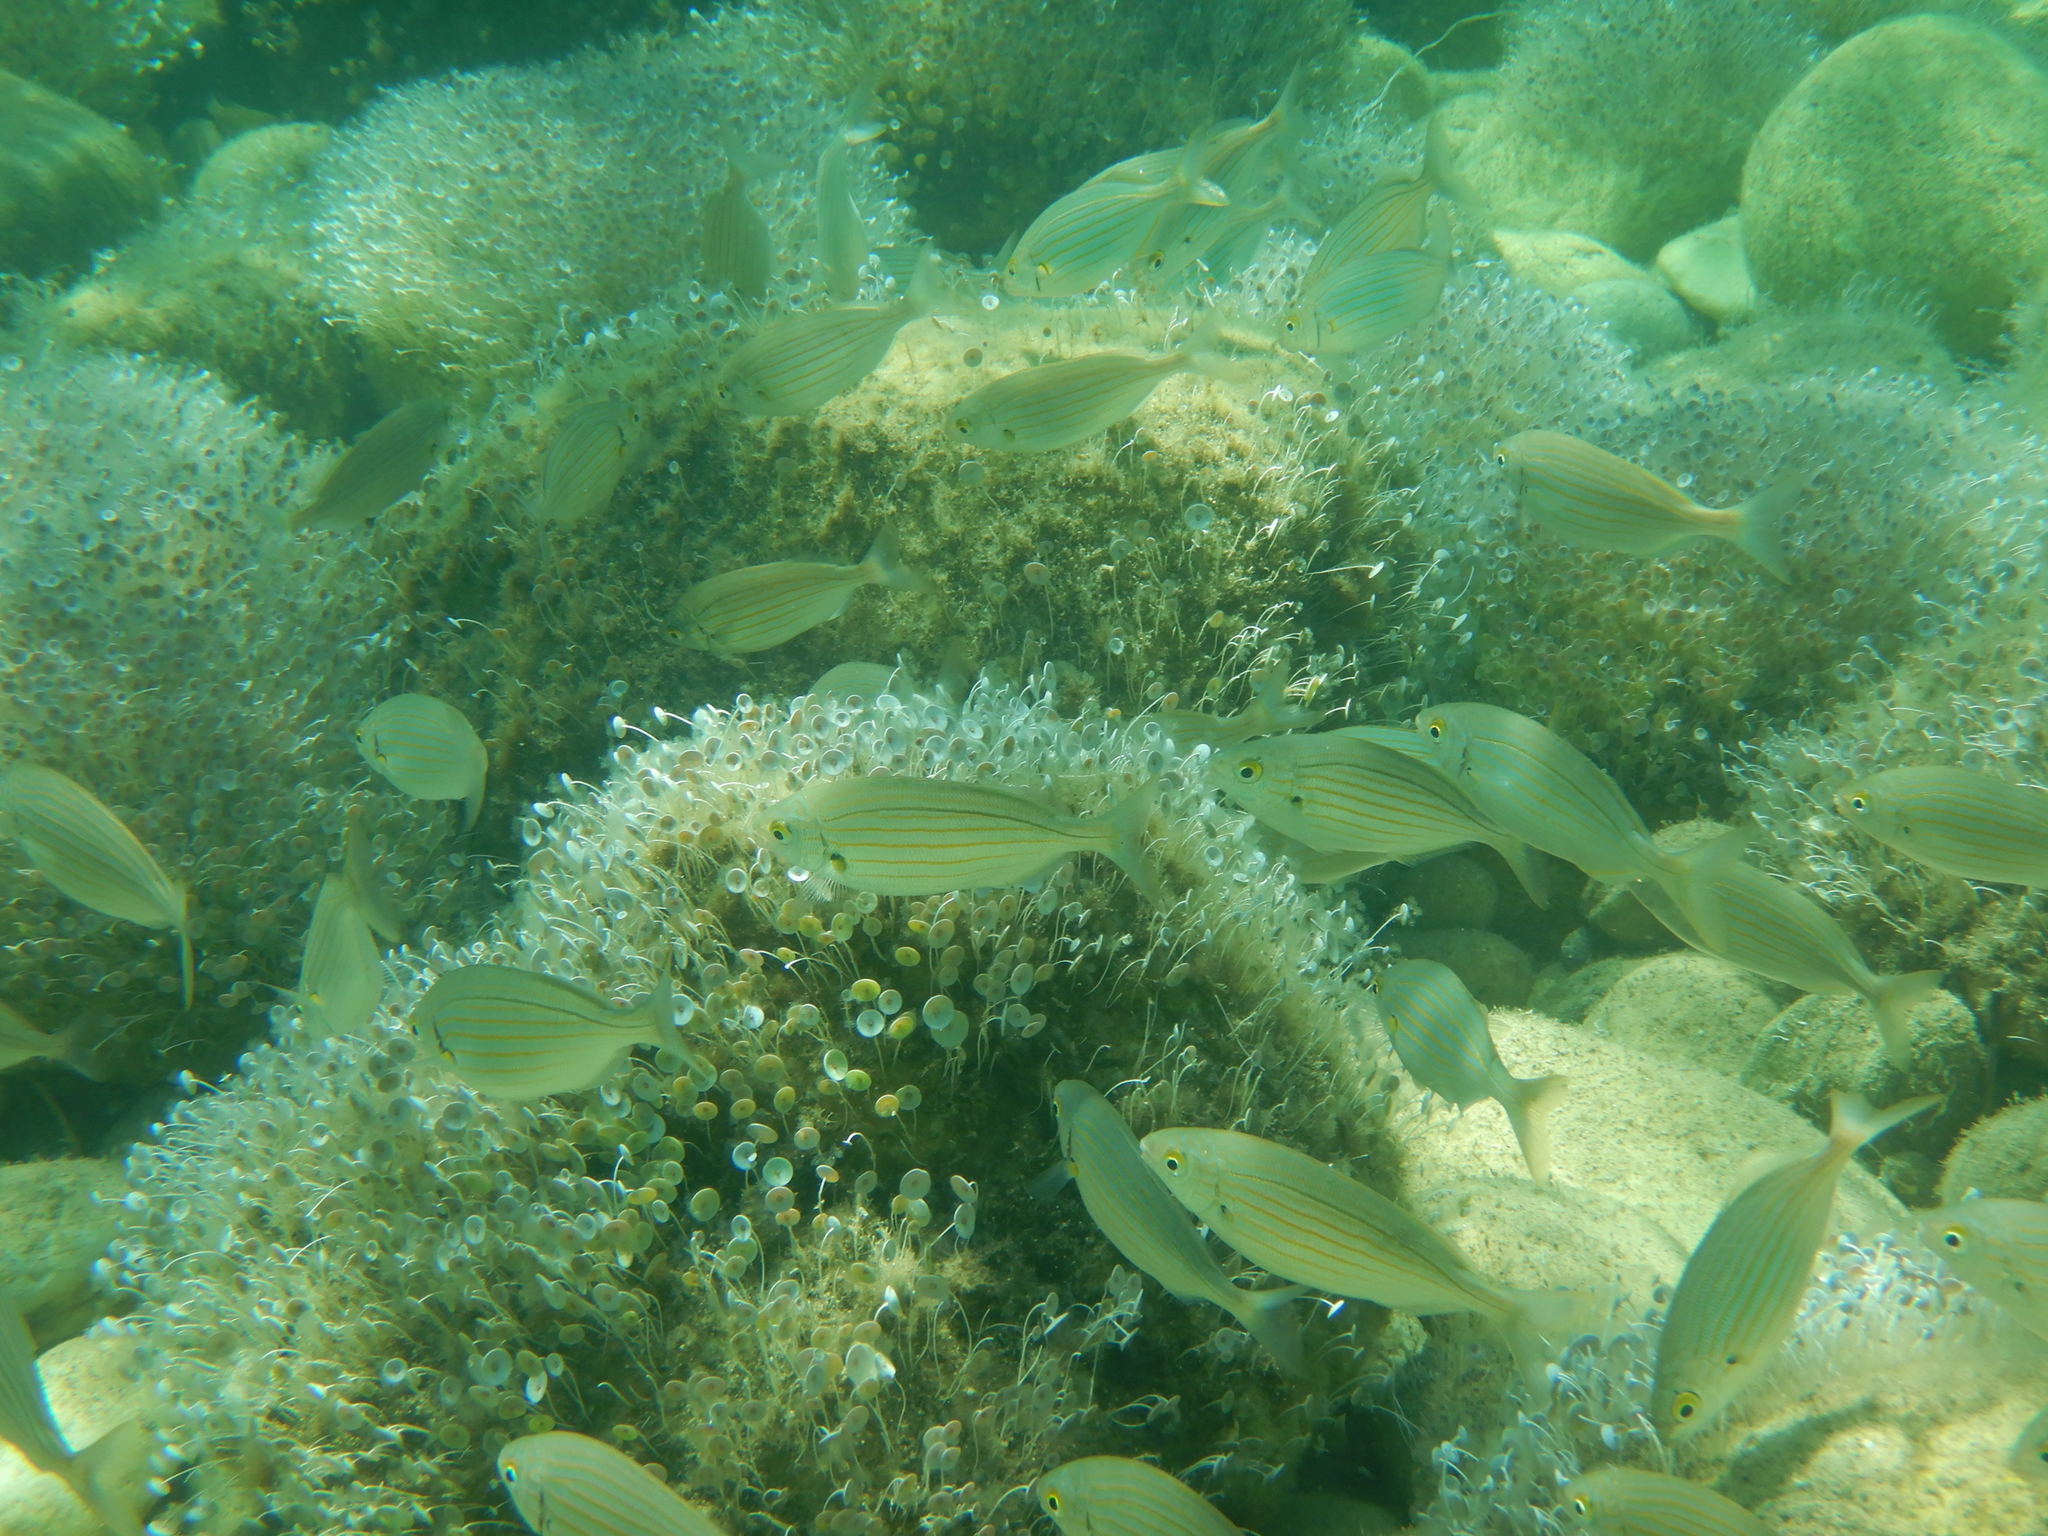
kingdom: Animalia
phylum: Chordata
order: Perciformes
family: Sparidae
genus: Sarpa
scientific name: Sarpa salpa
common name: Salema
